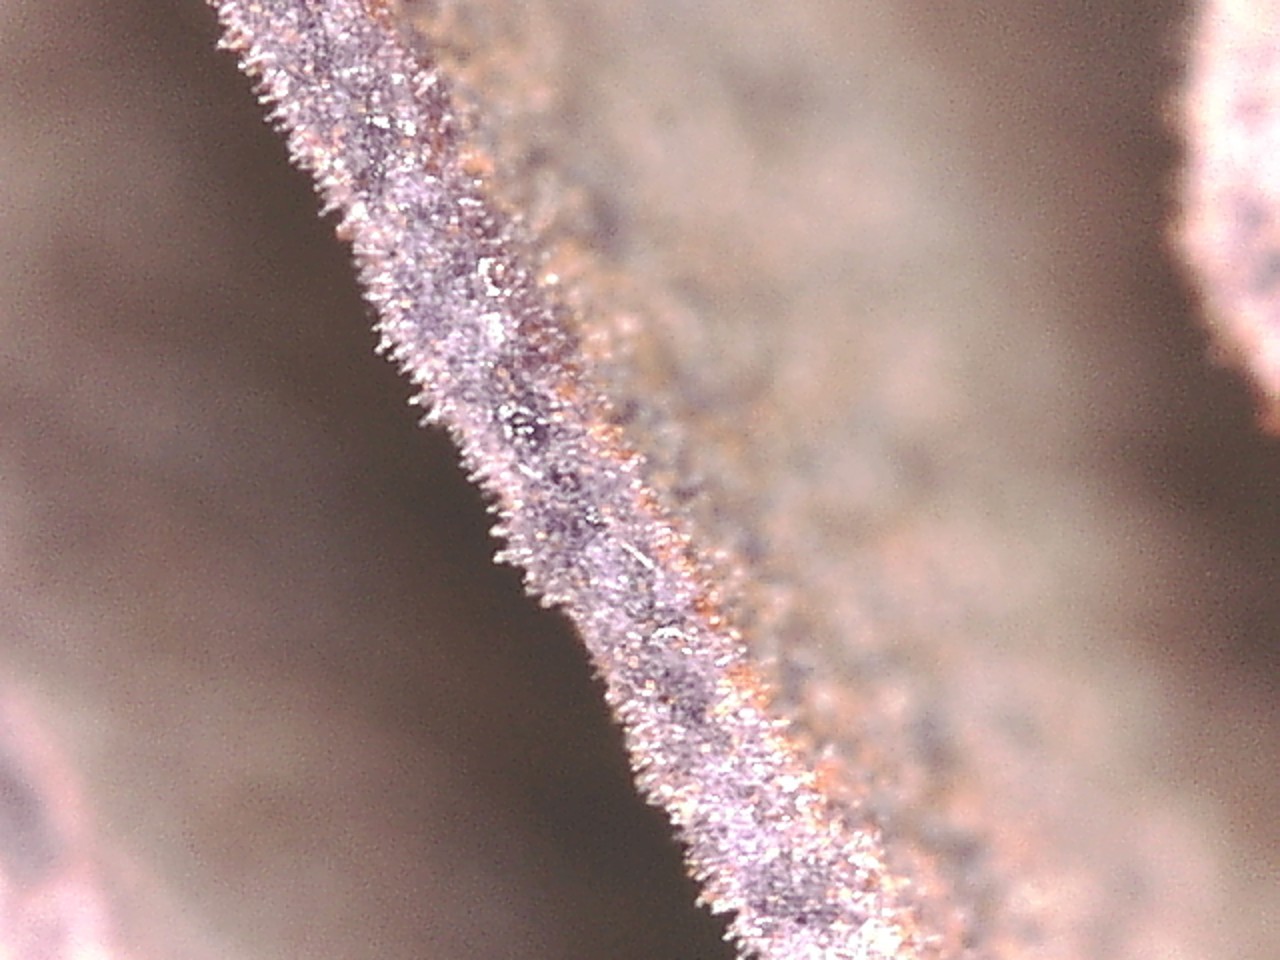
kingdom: Fungi
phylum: Basidiomycota
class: Agaricomycetes
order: Agaricales
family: Cortinariaceae
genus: Cortinarius
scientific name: Cortinarius violaceus
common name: Violet webcap
